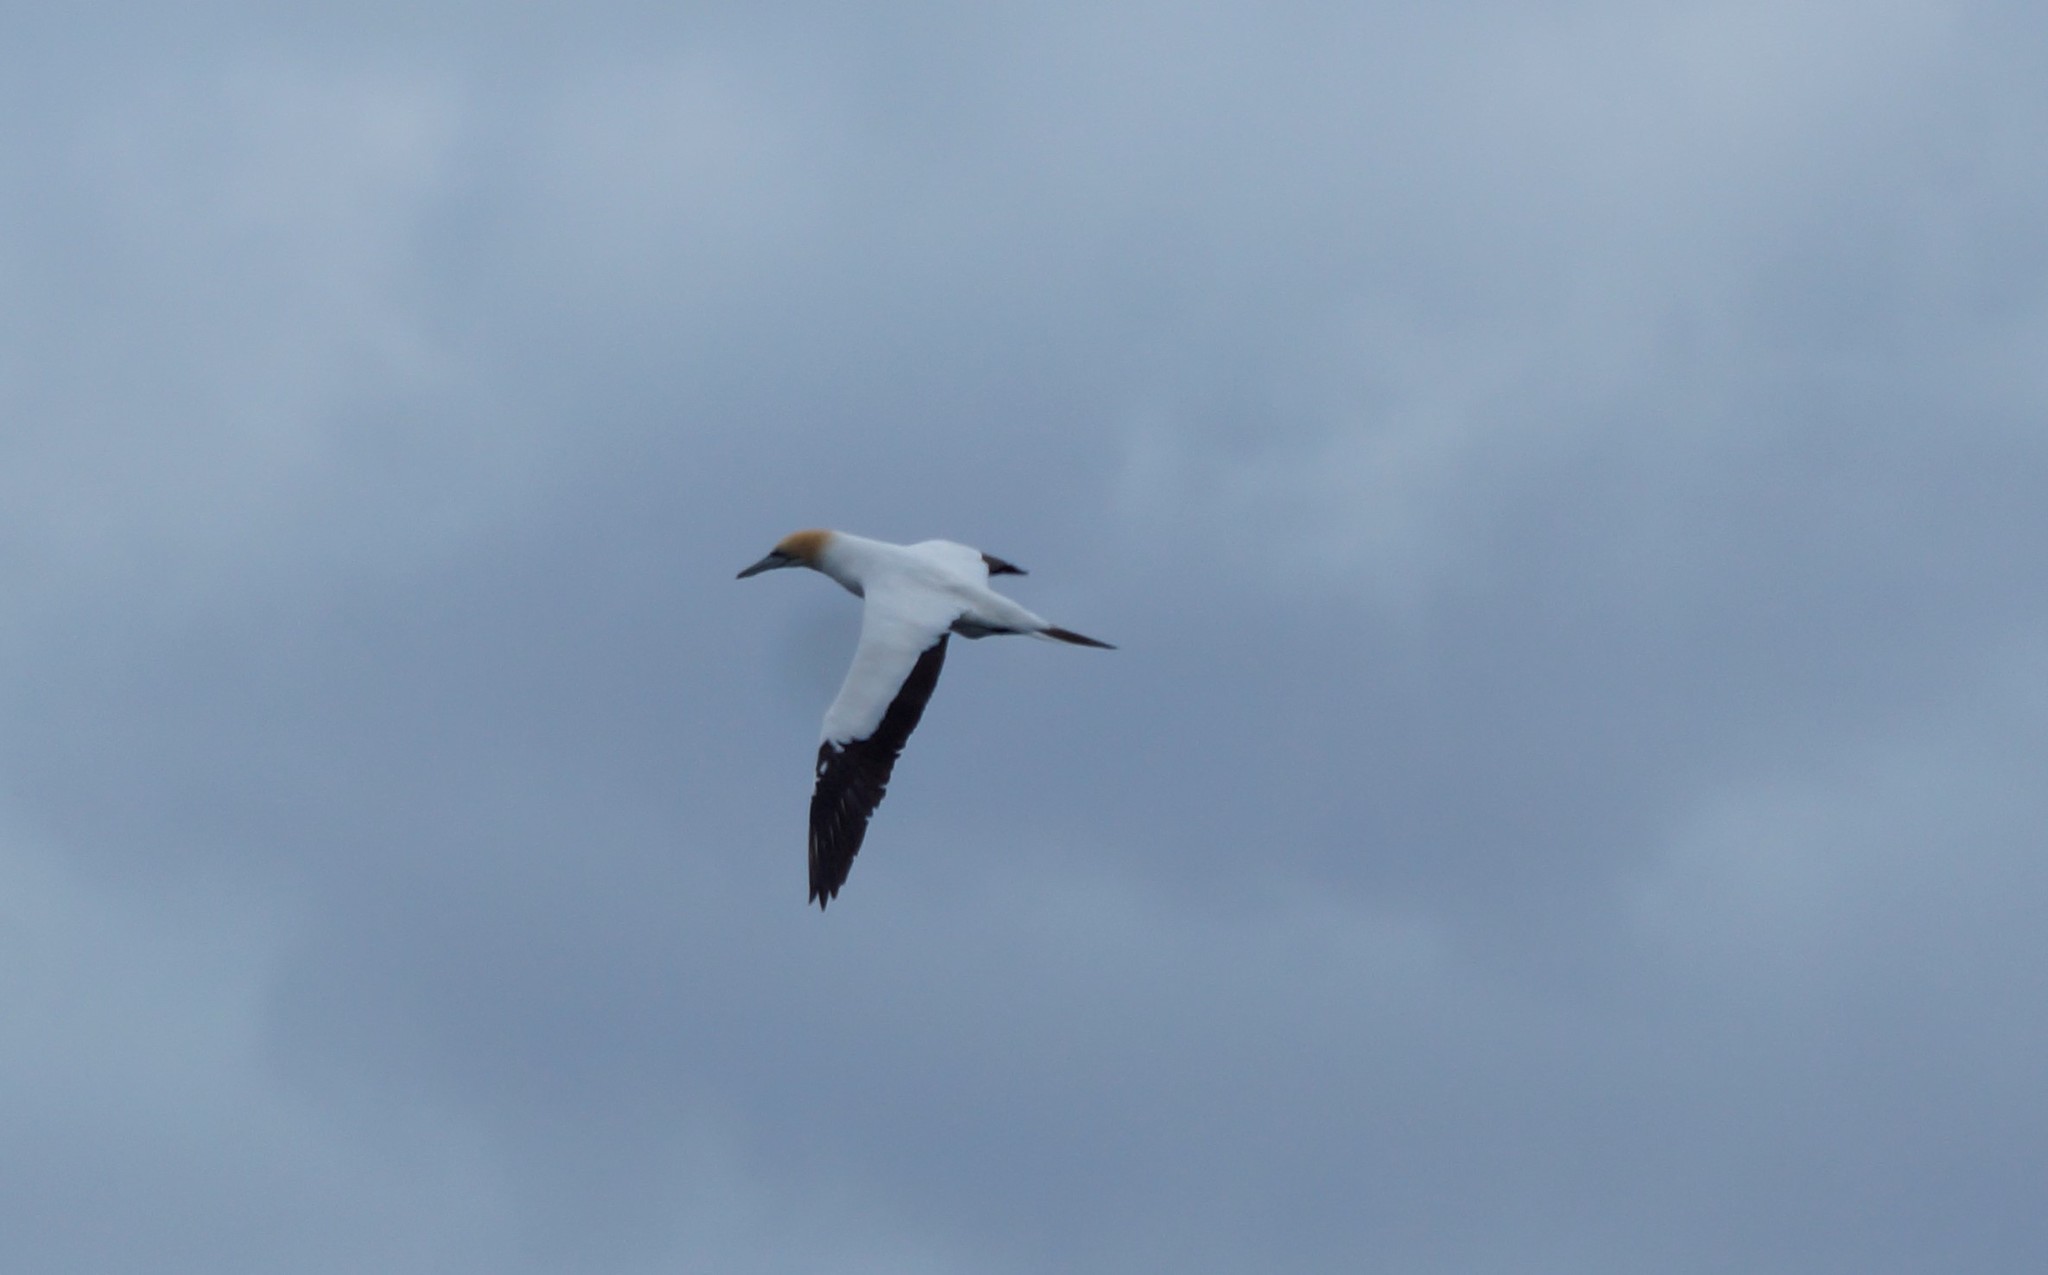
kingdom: Animalia
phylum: Chordata
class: Aves
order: Suliformes
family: Sulidae
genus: Morus
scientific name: Morus serrator
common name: Australasian gannet
